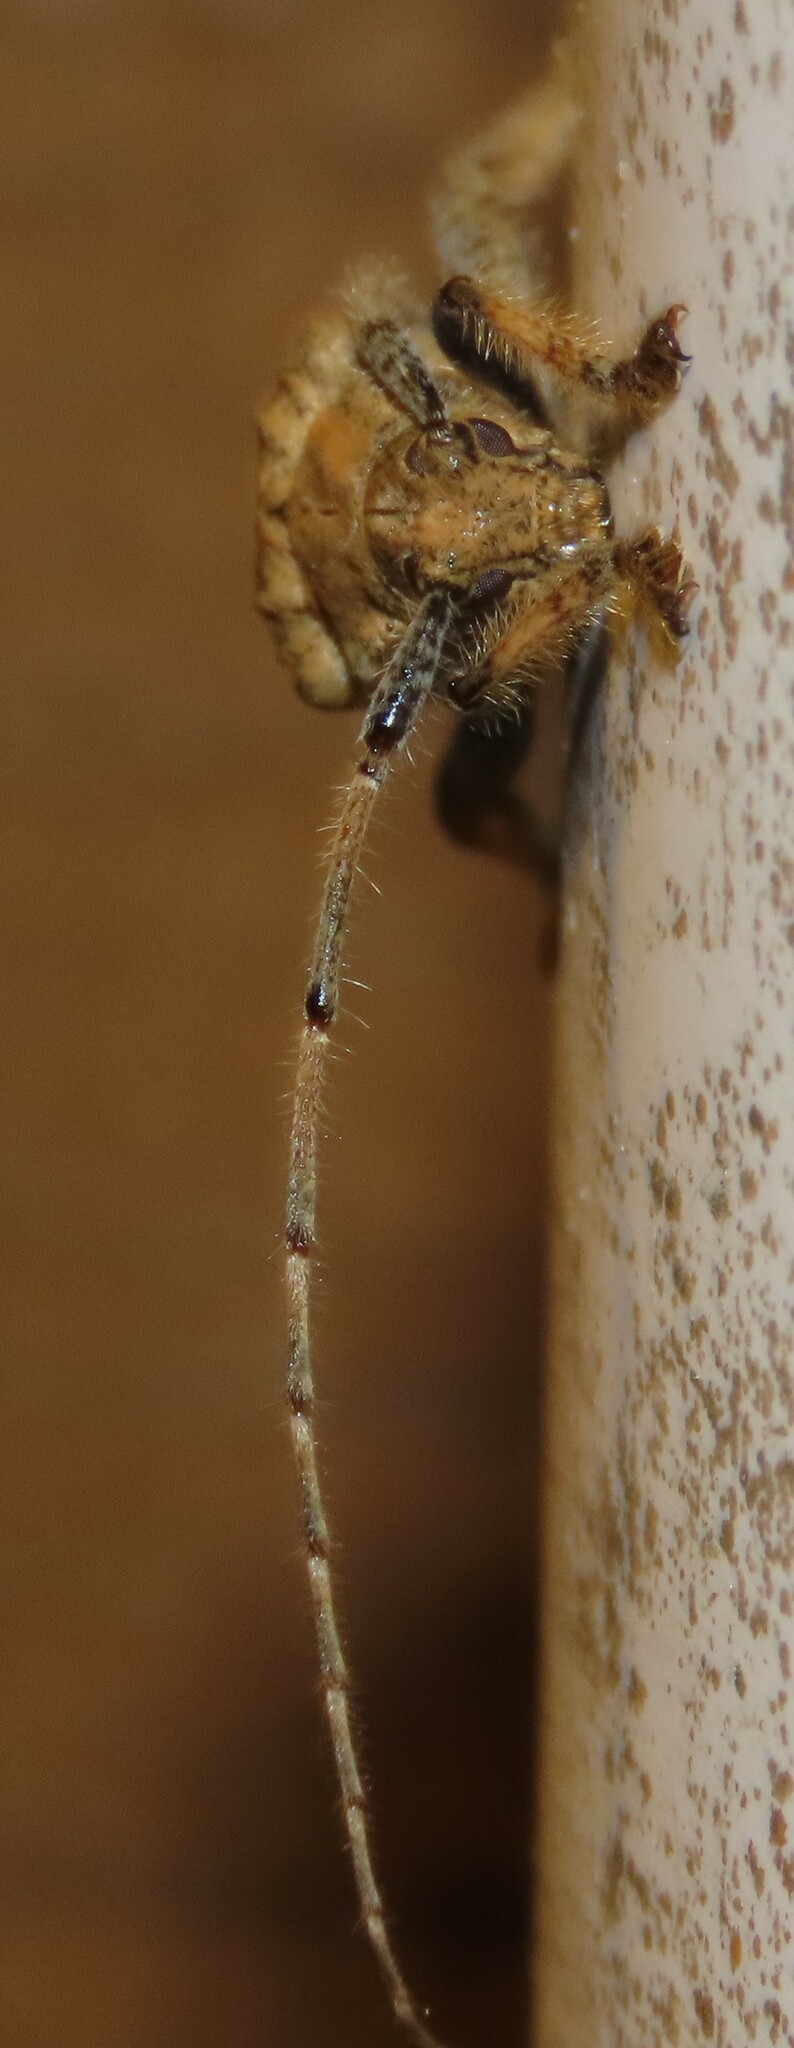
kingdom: Animalia
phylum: Arthropoda
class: Insecta
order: Coleoptera
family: Cerambycidae
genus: Polyacanthia
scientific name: Polyacanthia flavipes
